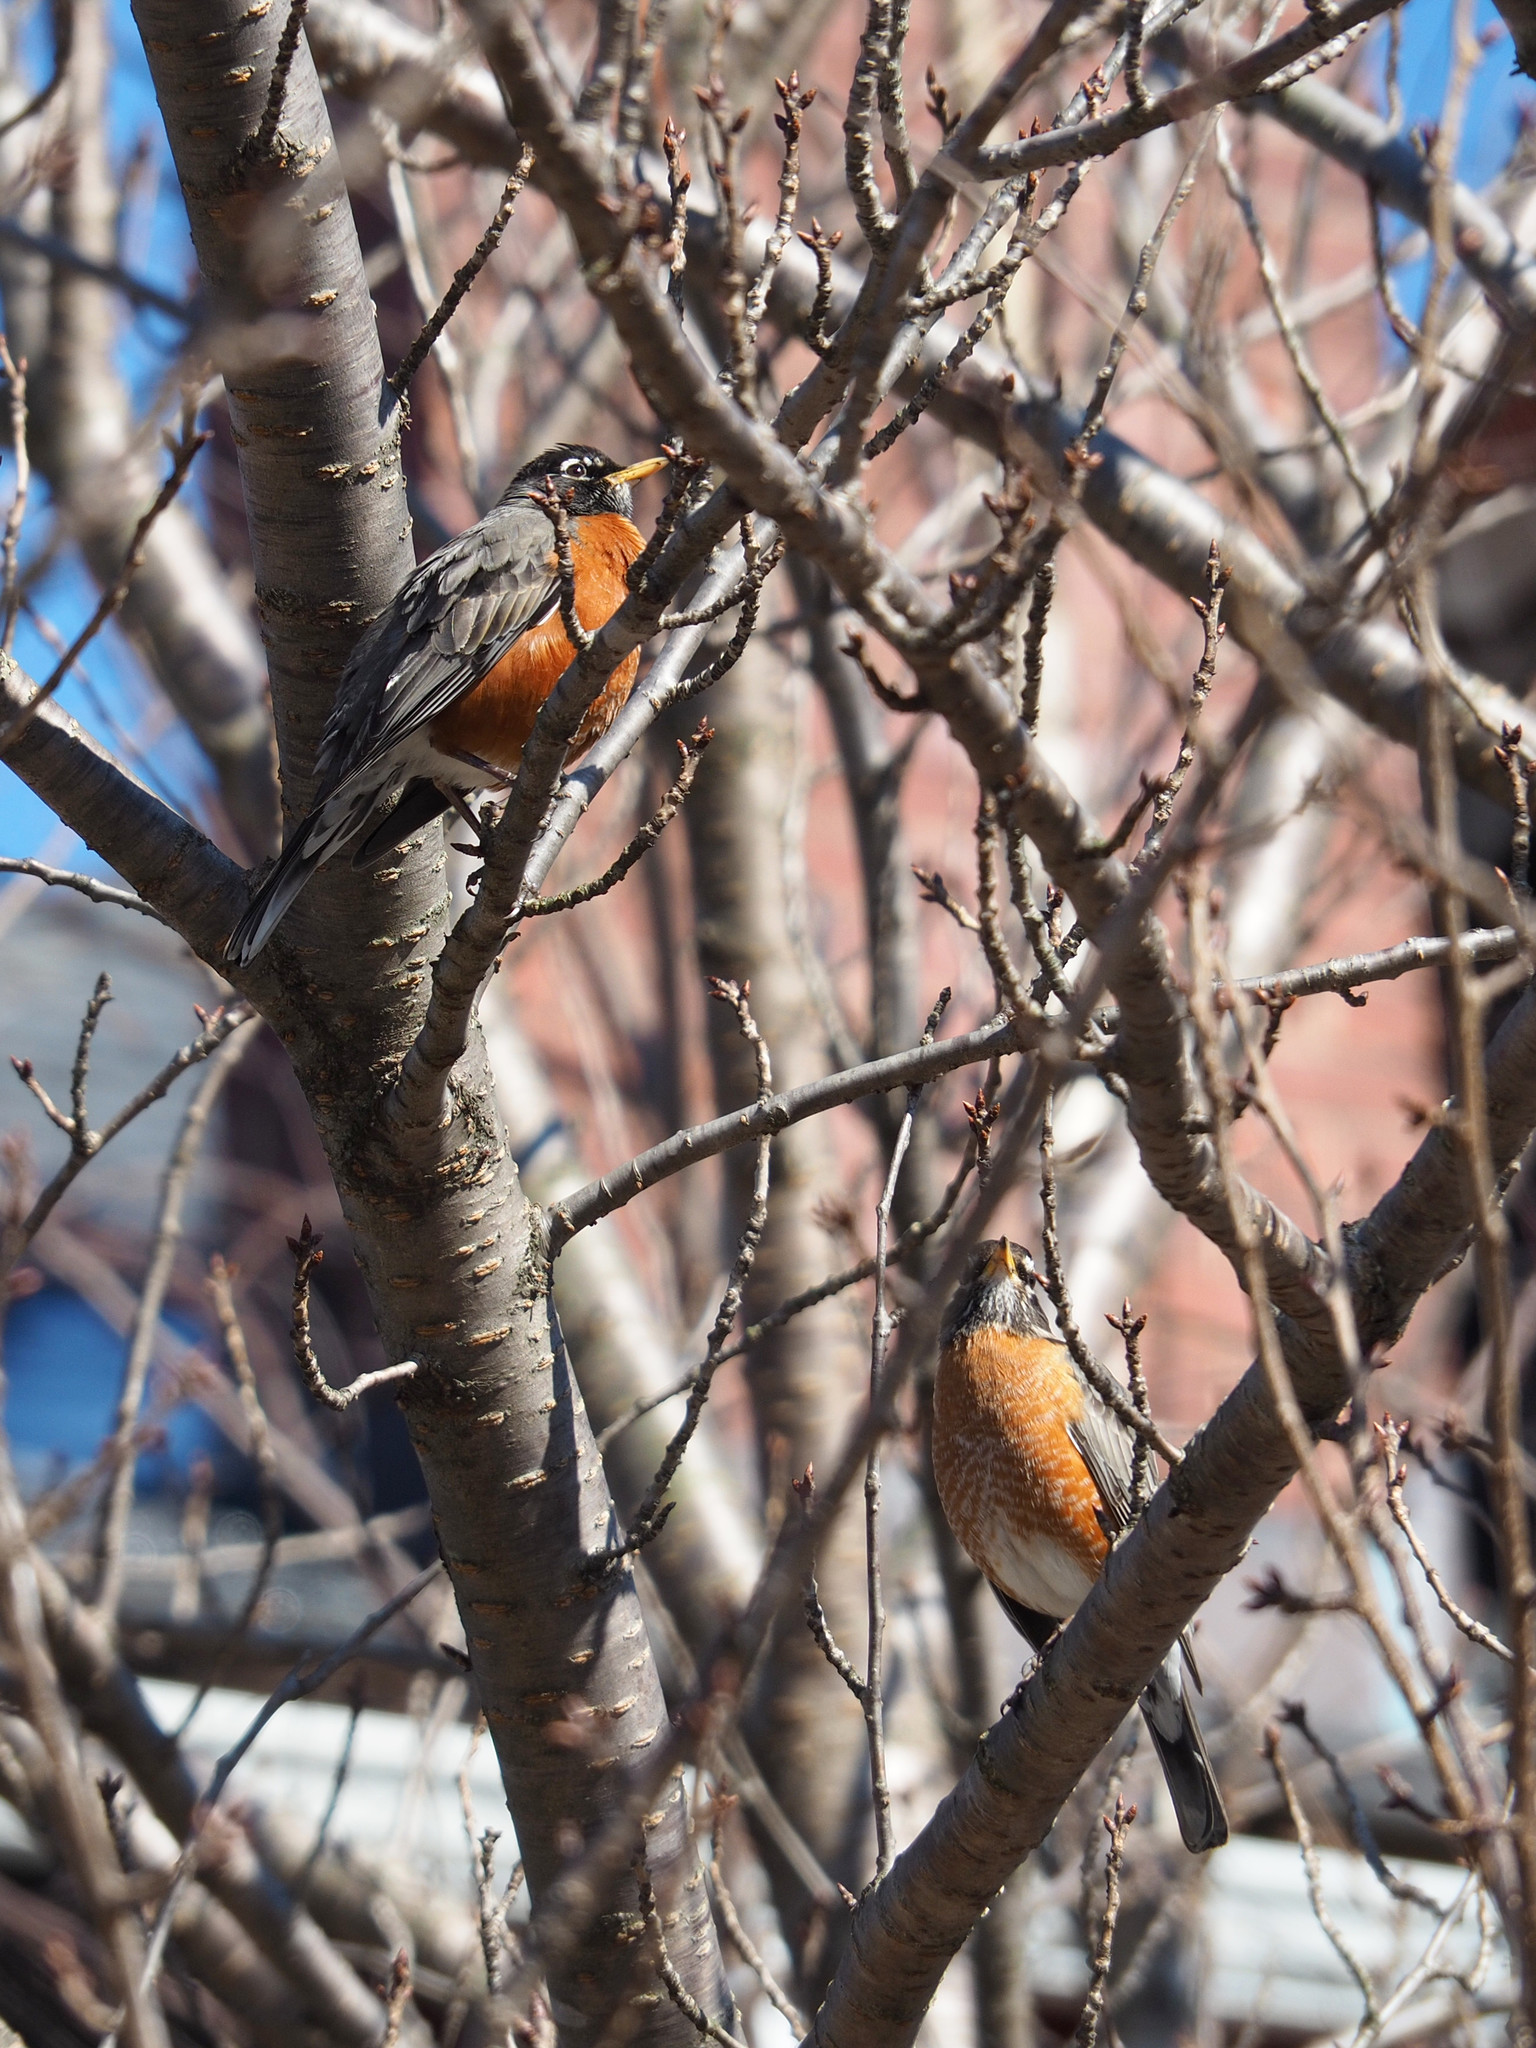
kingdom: Animalia
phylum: Chordata
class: Aves
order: Passeriformes
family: Turdidae
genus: Turdus
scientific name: Turdus migratorius
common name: American robin
